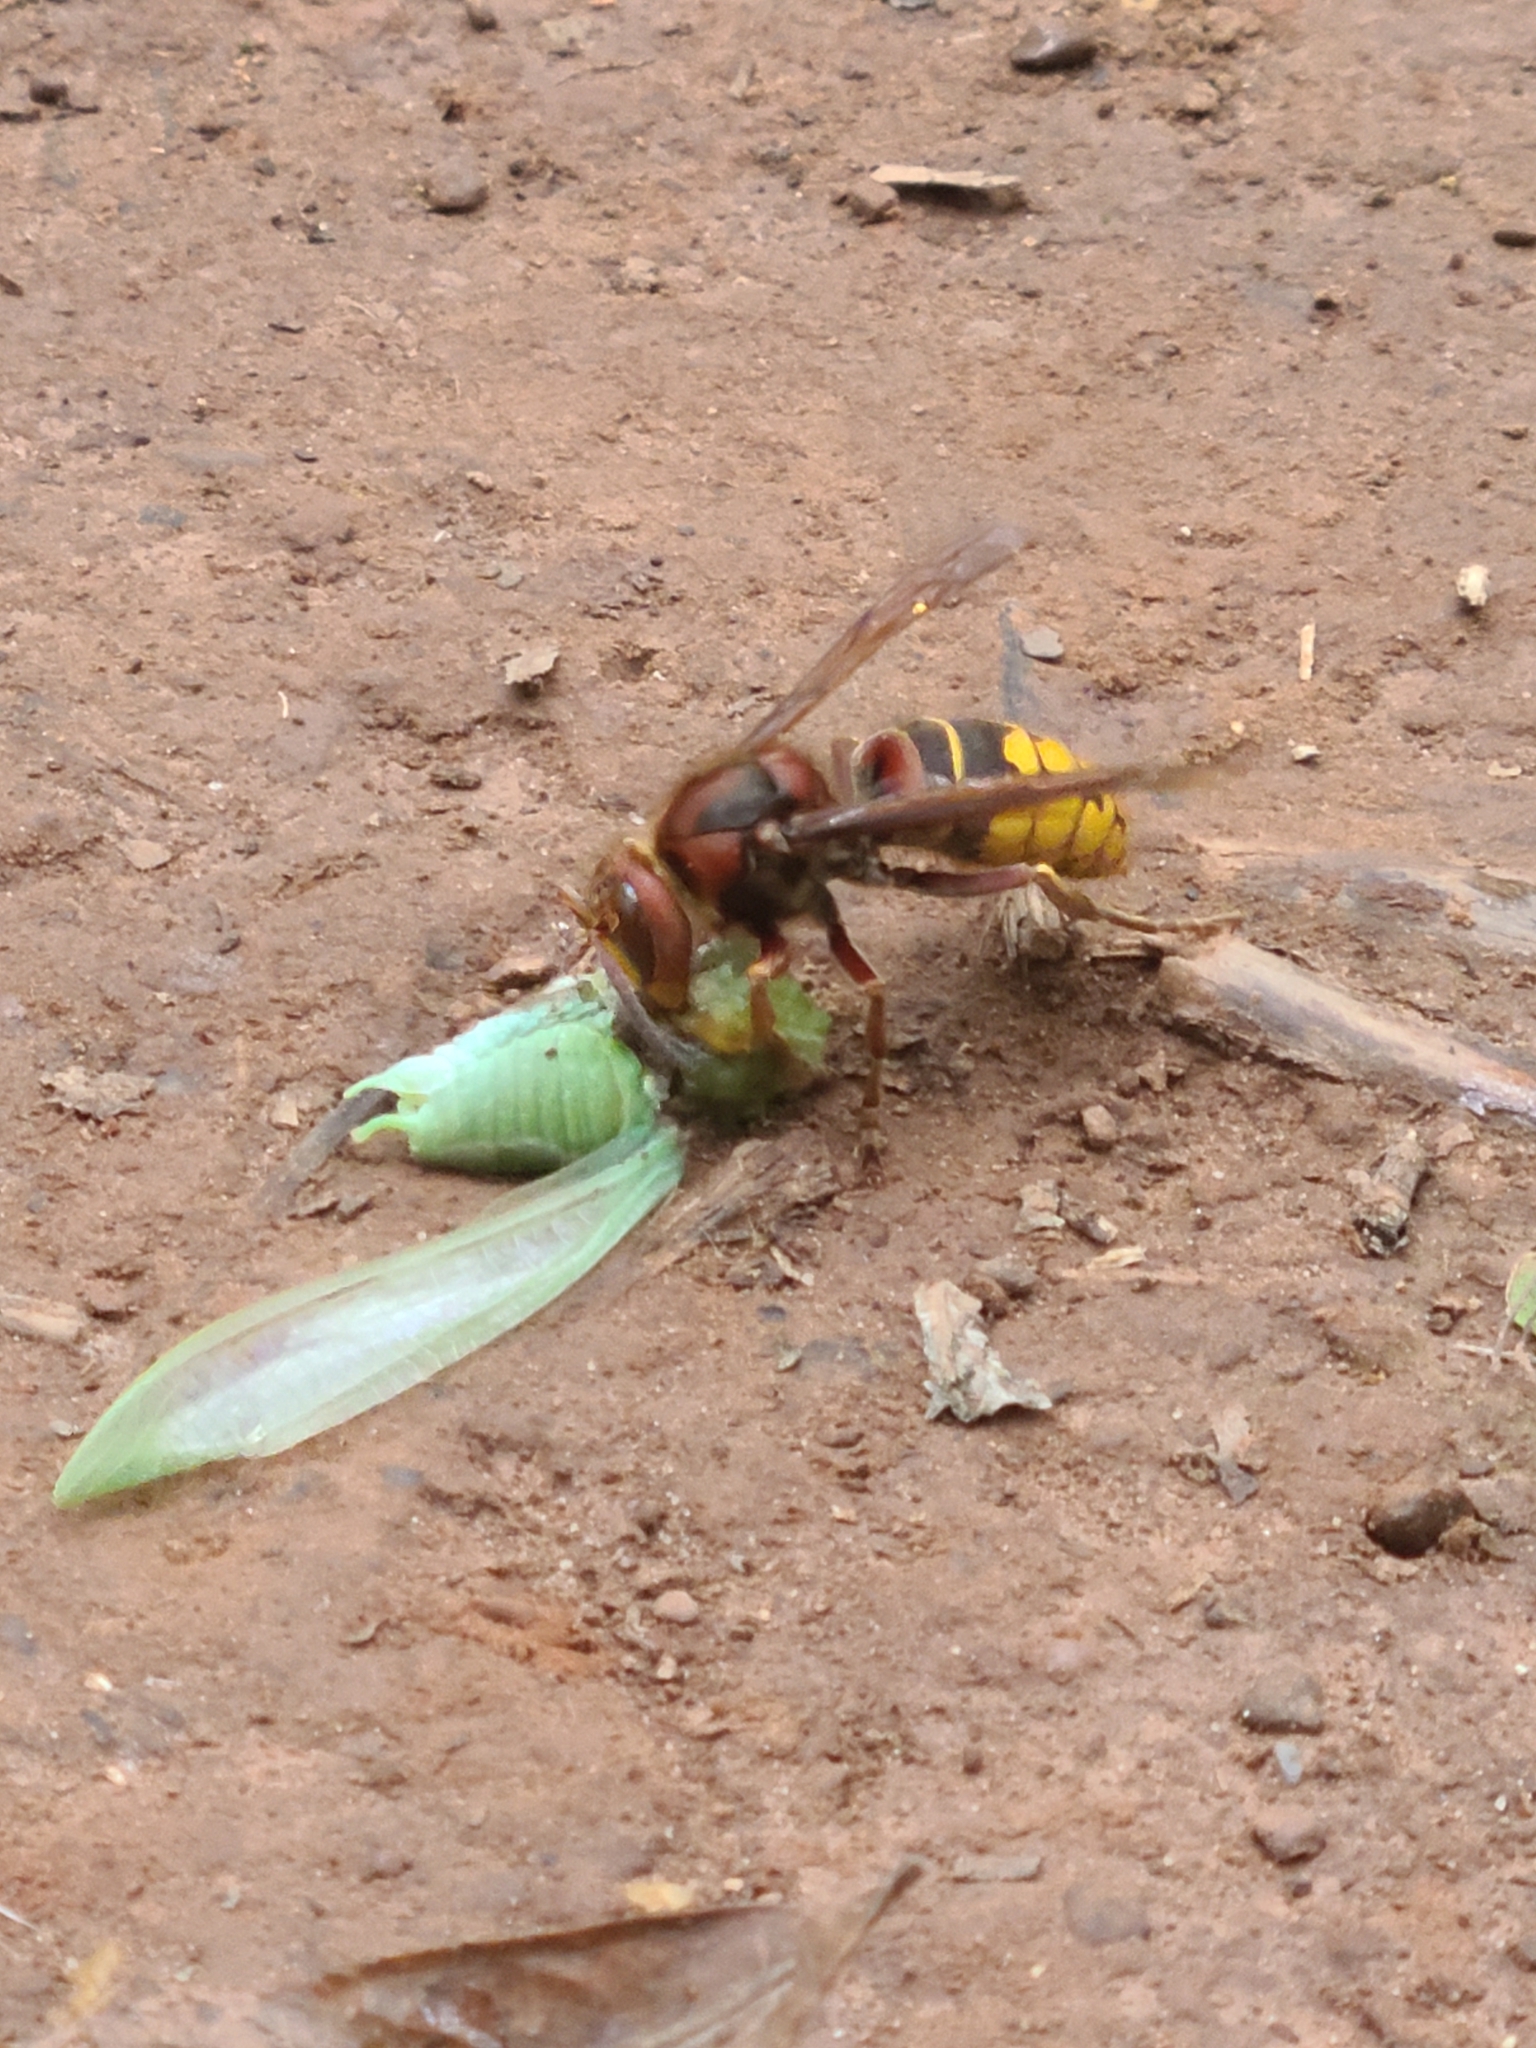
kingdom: Animalia
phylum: Arthropoda
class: Insecta
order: Hymenoptera
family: Vespidae
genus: Vespa
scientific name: Vespa crabro
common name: Hornet
